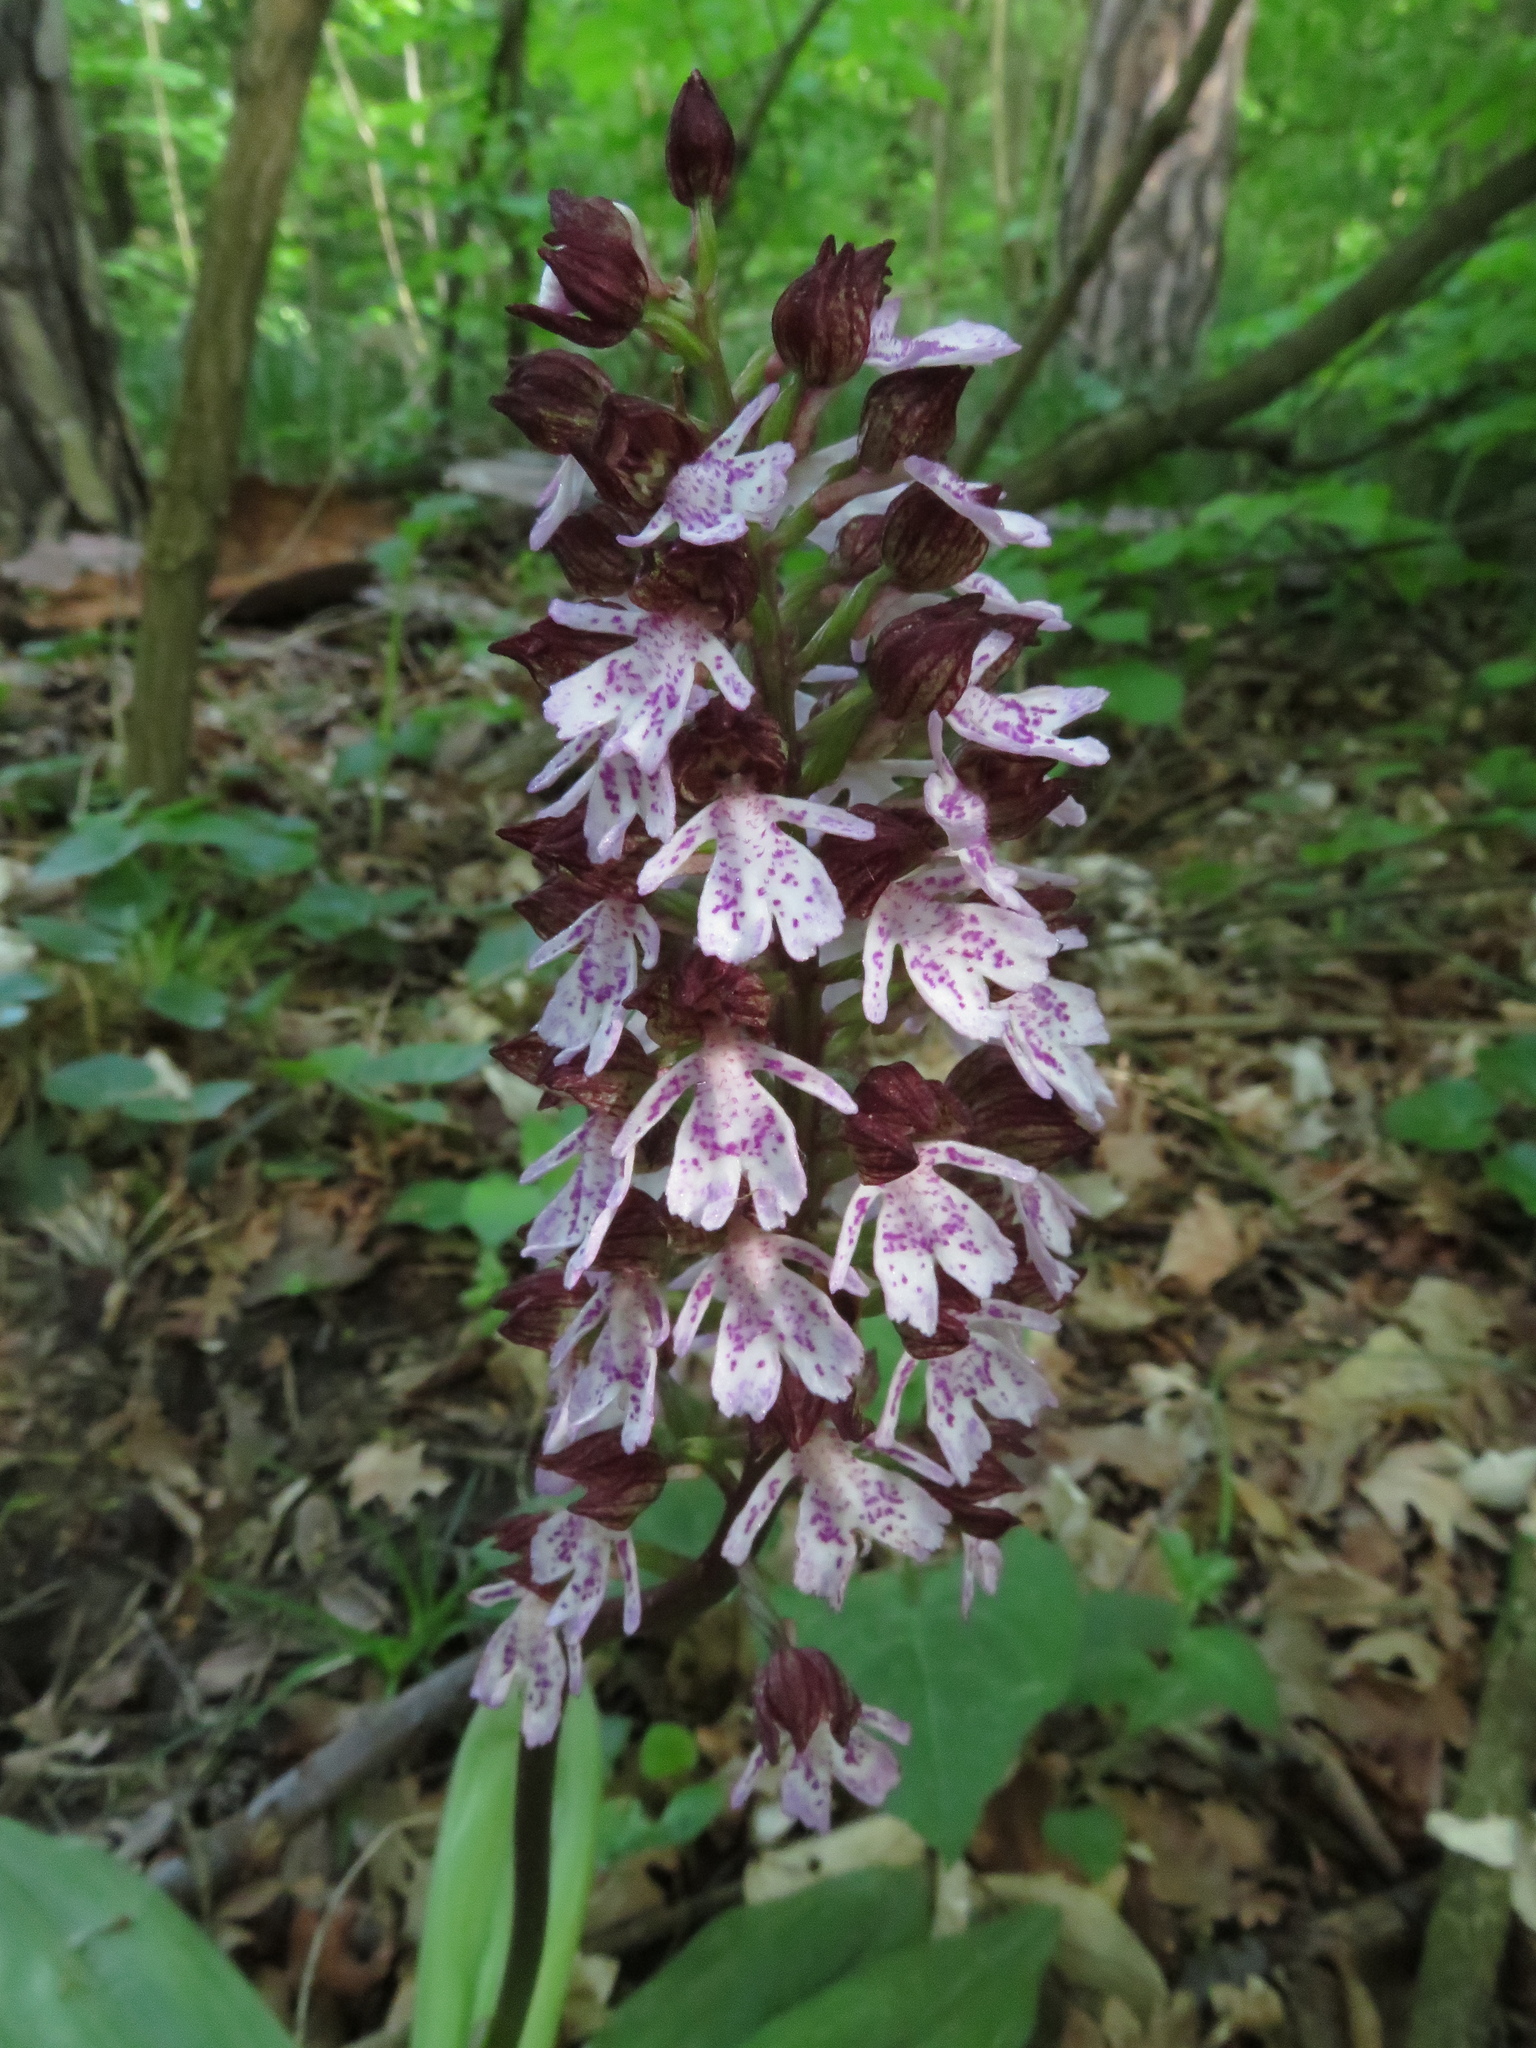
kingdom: Plantae
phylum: Tracheophyta
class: Liliopsida
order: Asparagales
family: Orchidaceae
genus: Orchis
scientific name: Orchis purpurea
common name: Lady orchid
